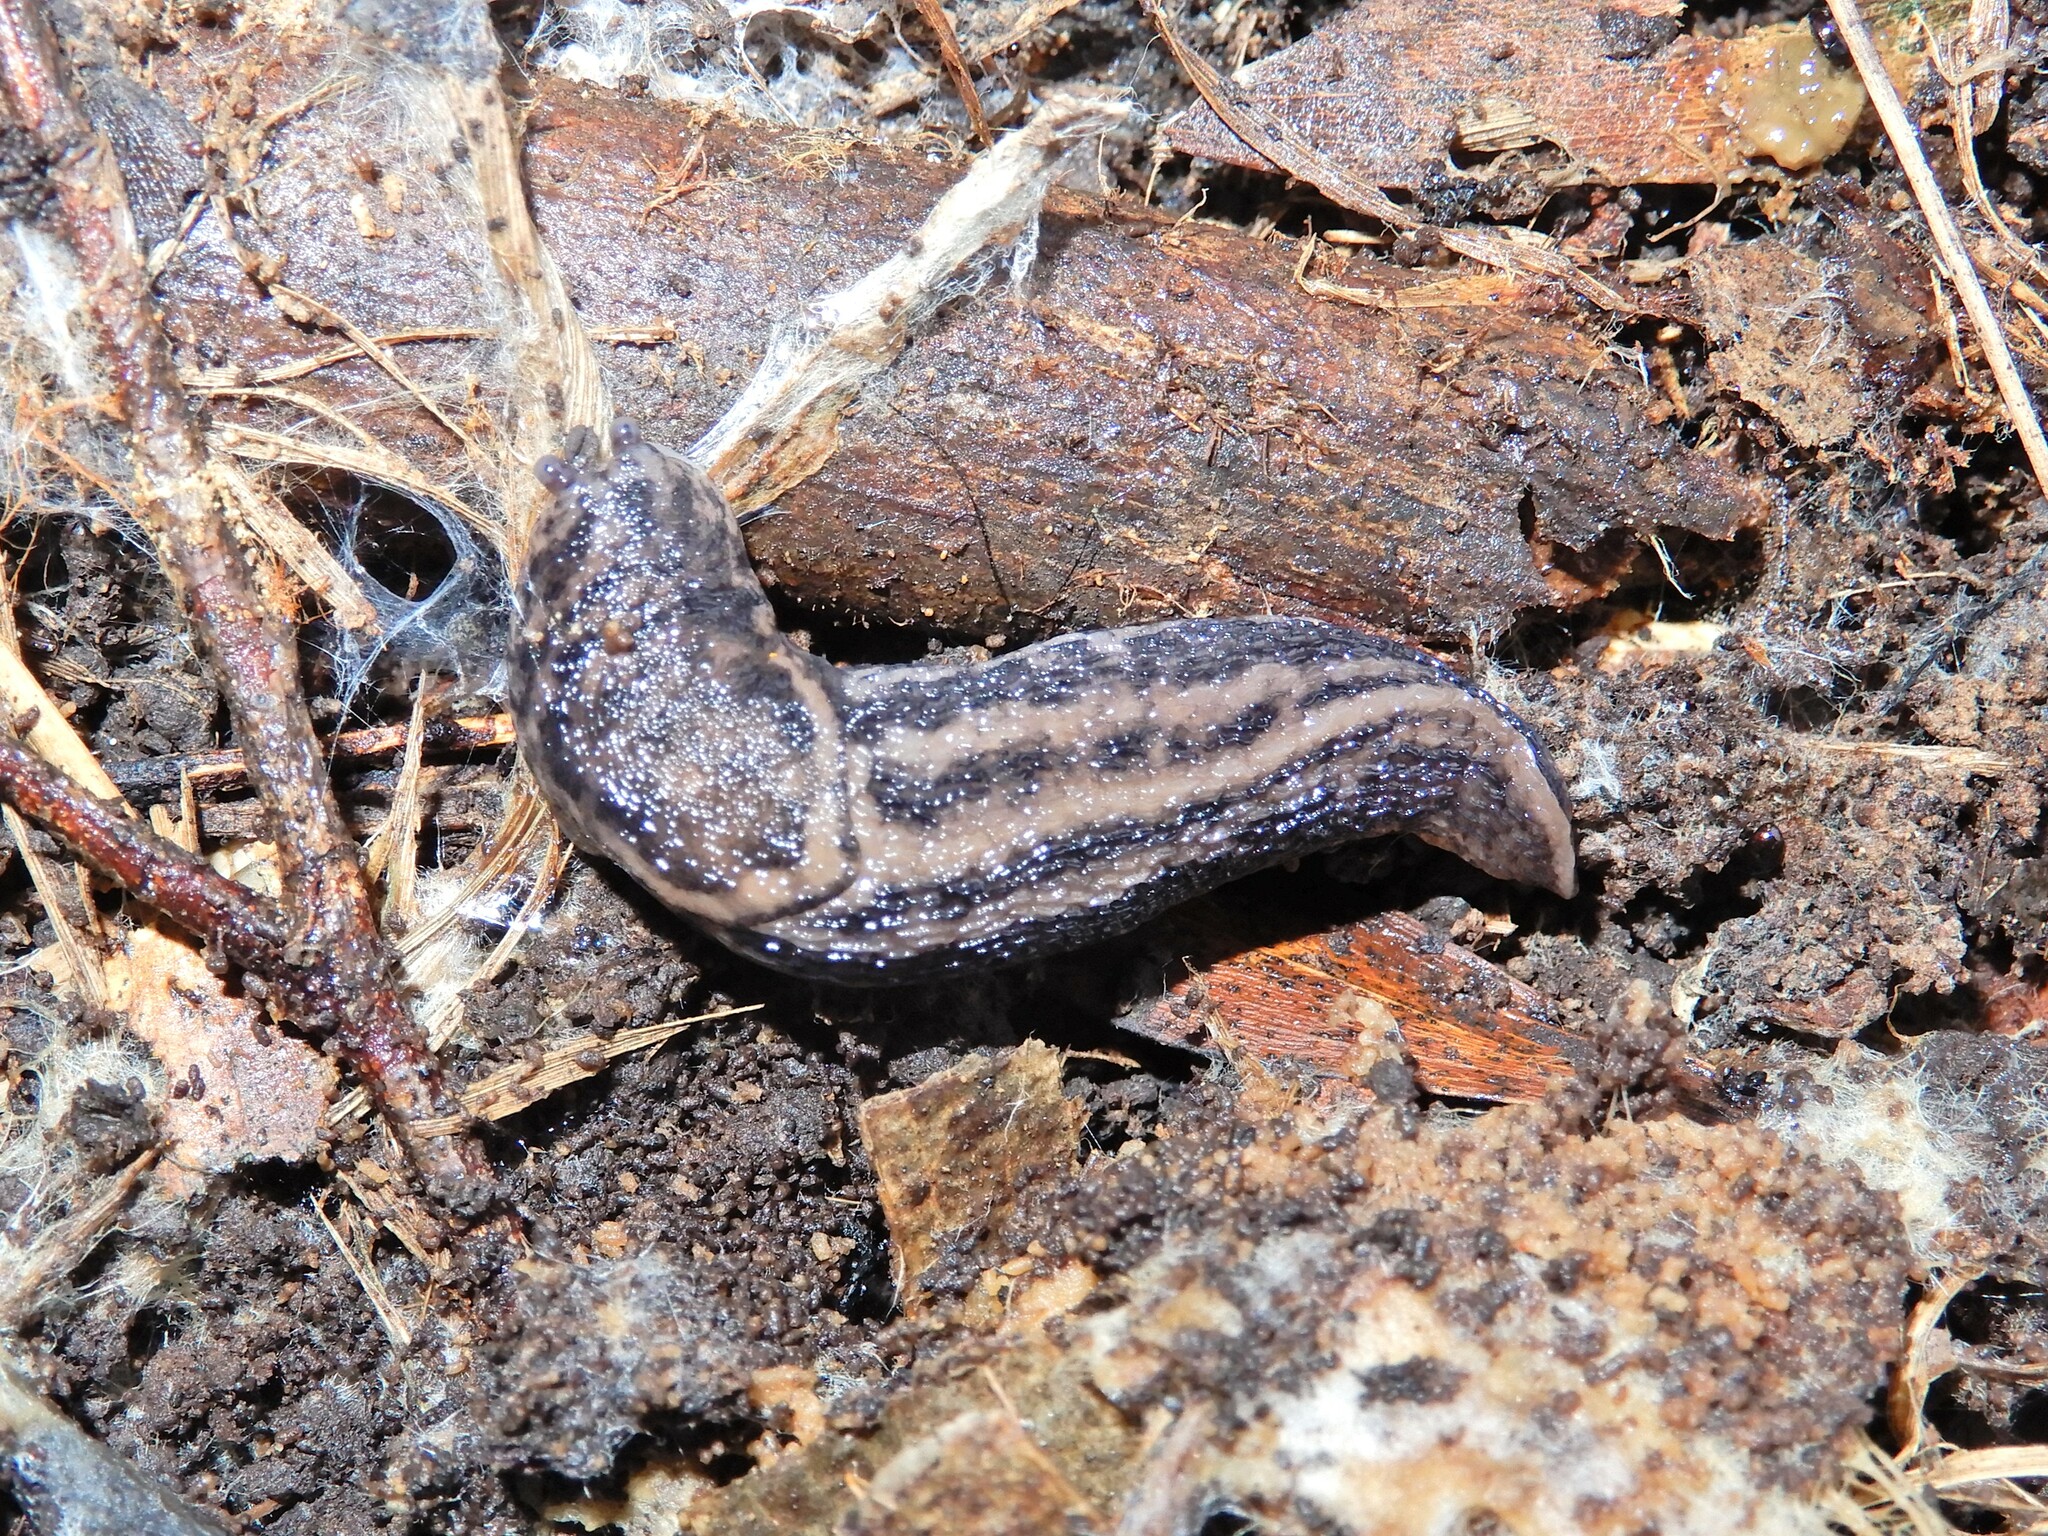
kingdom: Animalia
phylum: Mollusca
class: Gastropoda
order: Stylommatophora
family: Limacidae
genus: Limax
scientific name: Limax maximus
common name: Great grey slug
